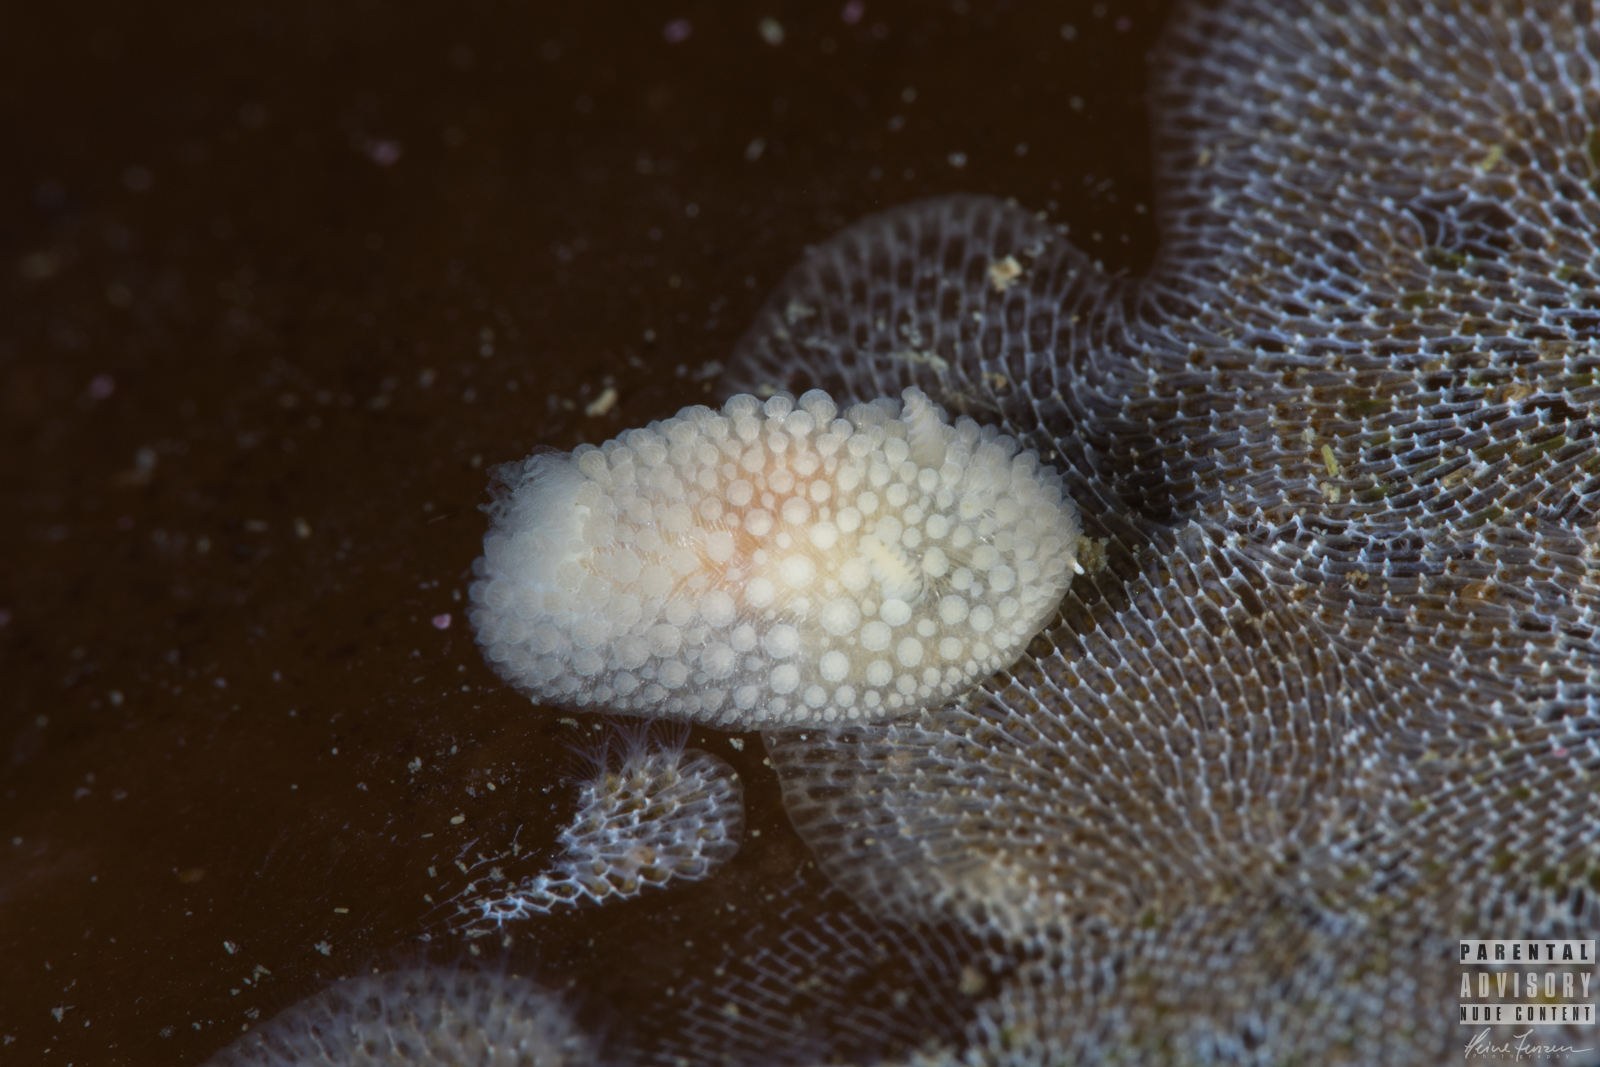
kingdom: Animalia
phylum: Mollusca
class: Gastropoda
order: Nudibranchia
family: Onchidorididae
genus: Onchidoris
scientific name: Onchidoris muricata
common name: Rough doris
